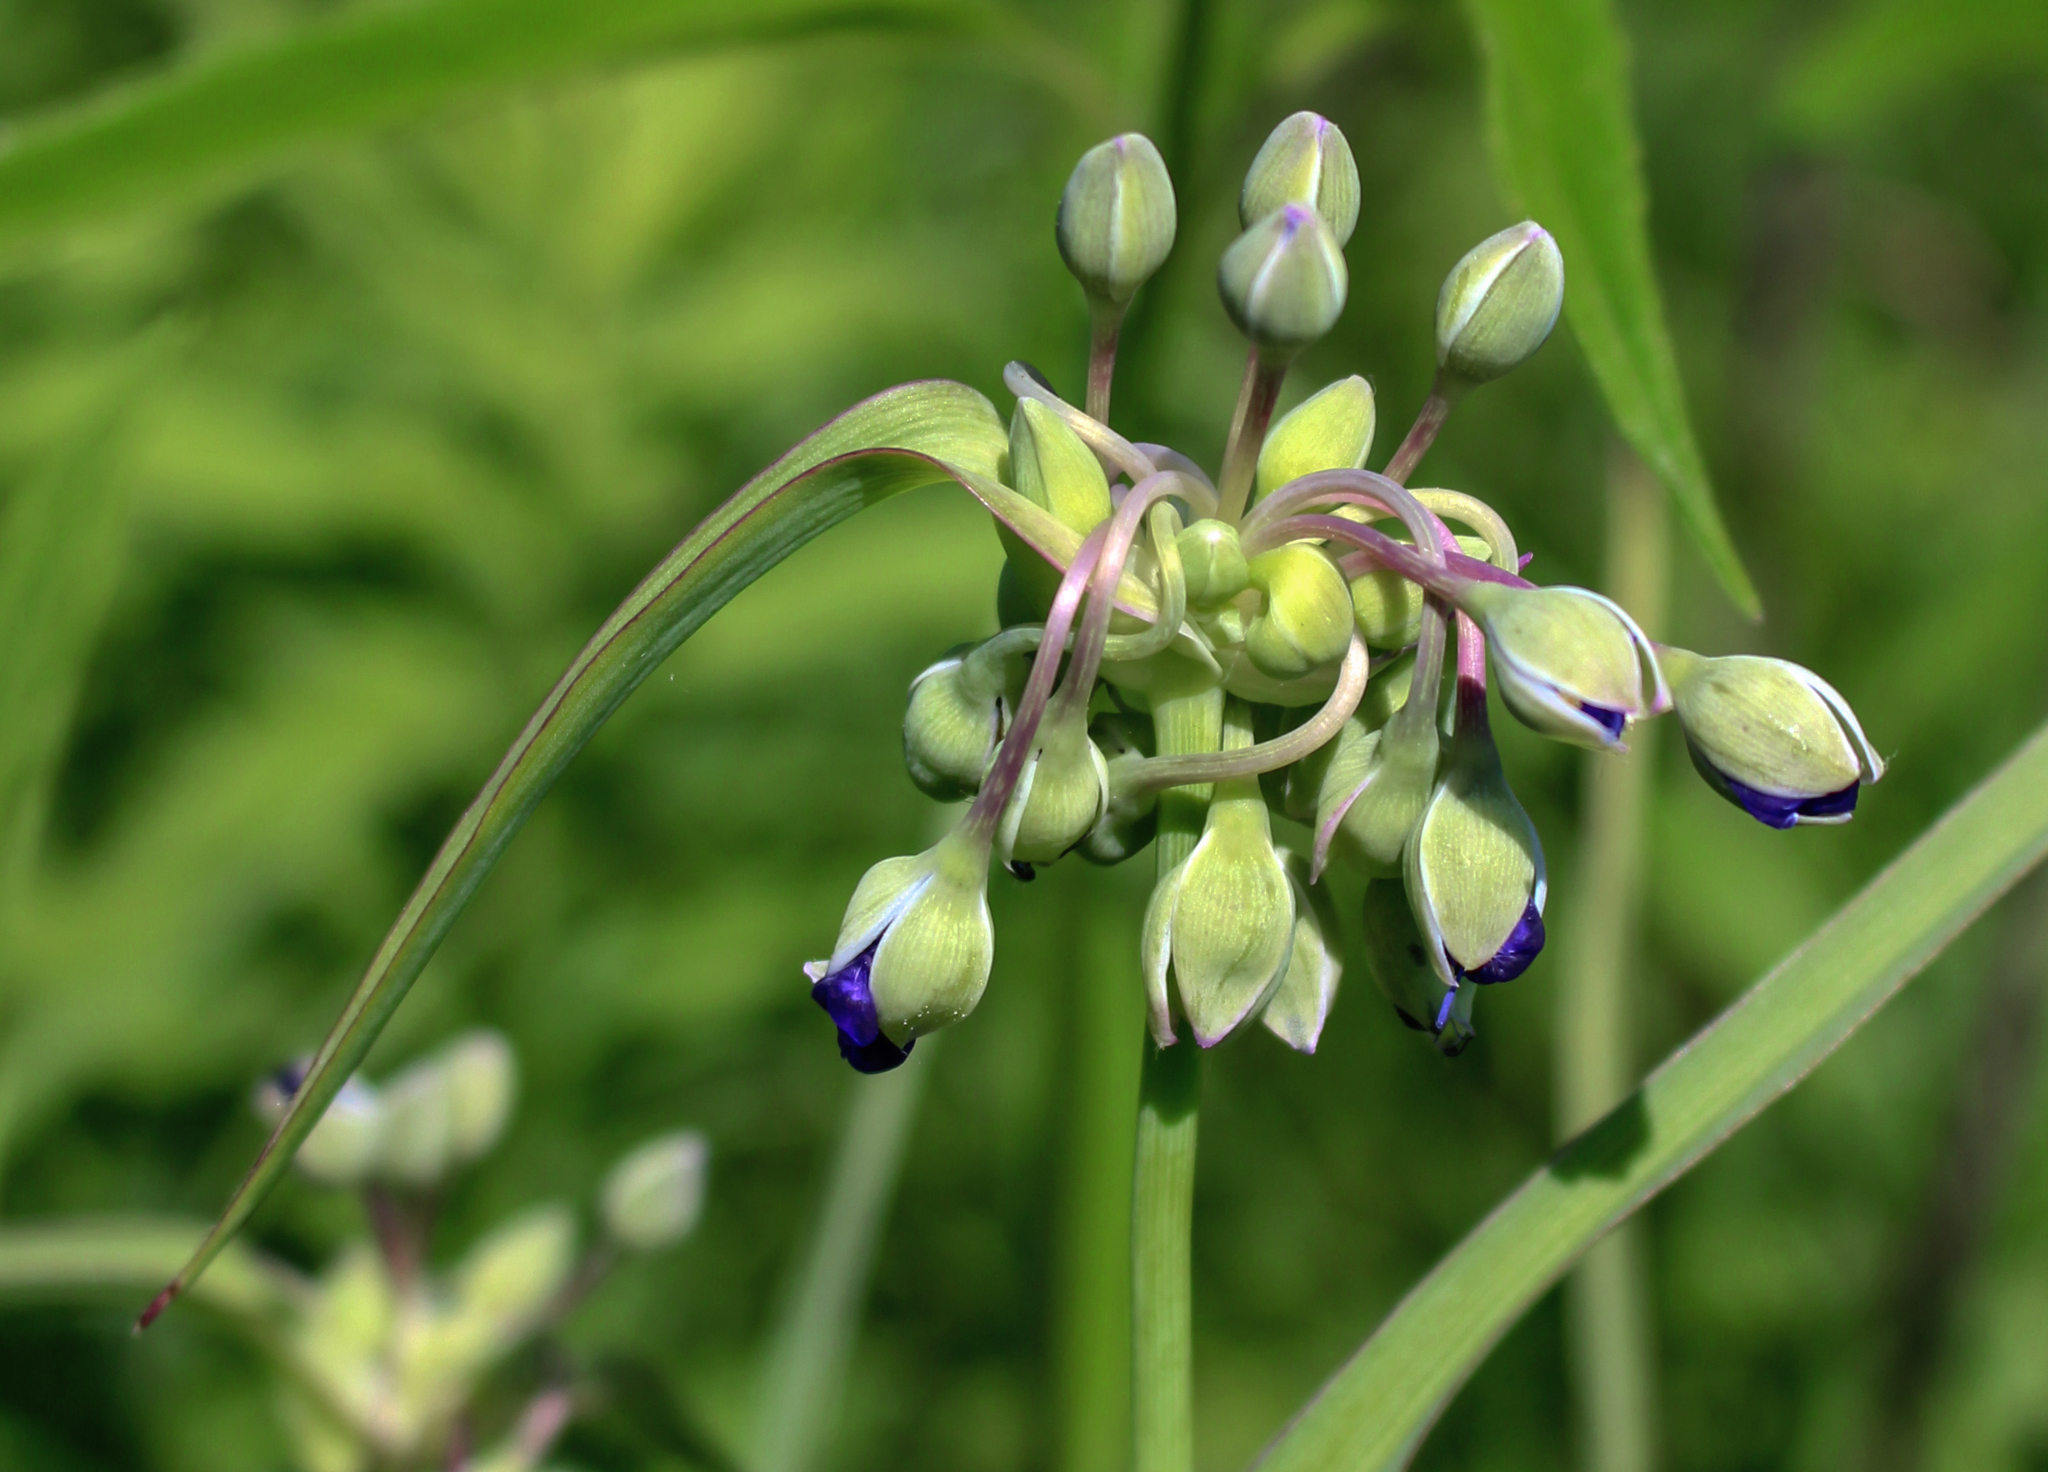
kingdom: Plantae
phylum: Tracheophyta
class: Liliopsida
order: Commelinales
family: Commelinaceae
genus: Tradescantia
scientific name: Tradescantia ohiensis
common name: Ohio spiderwort
